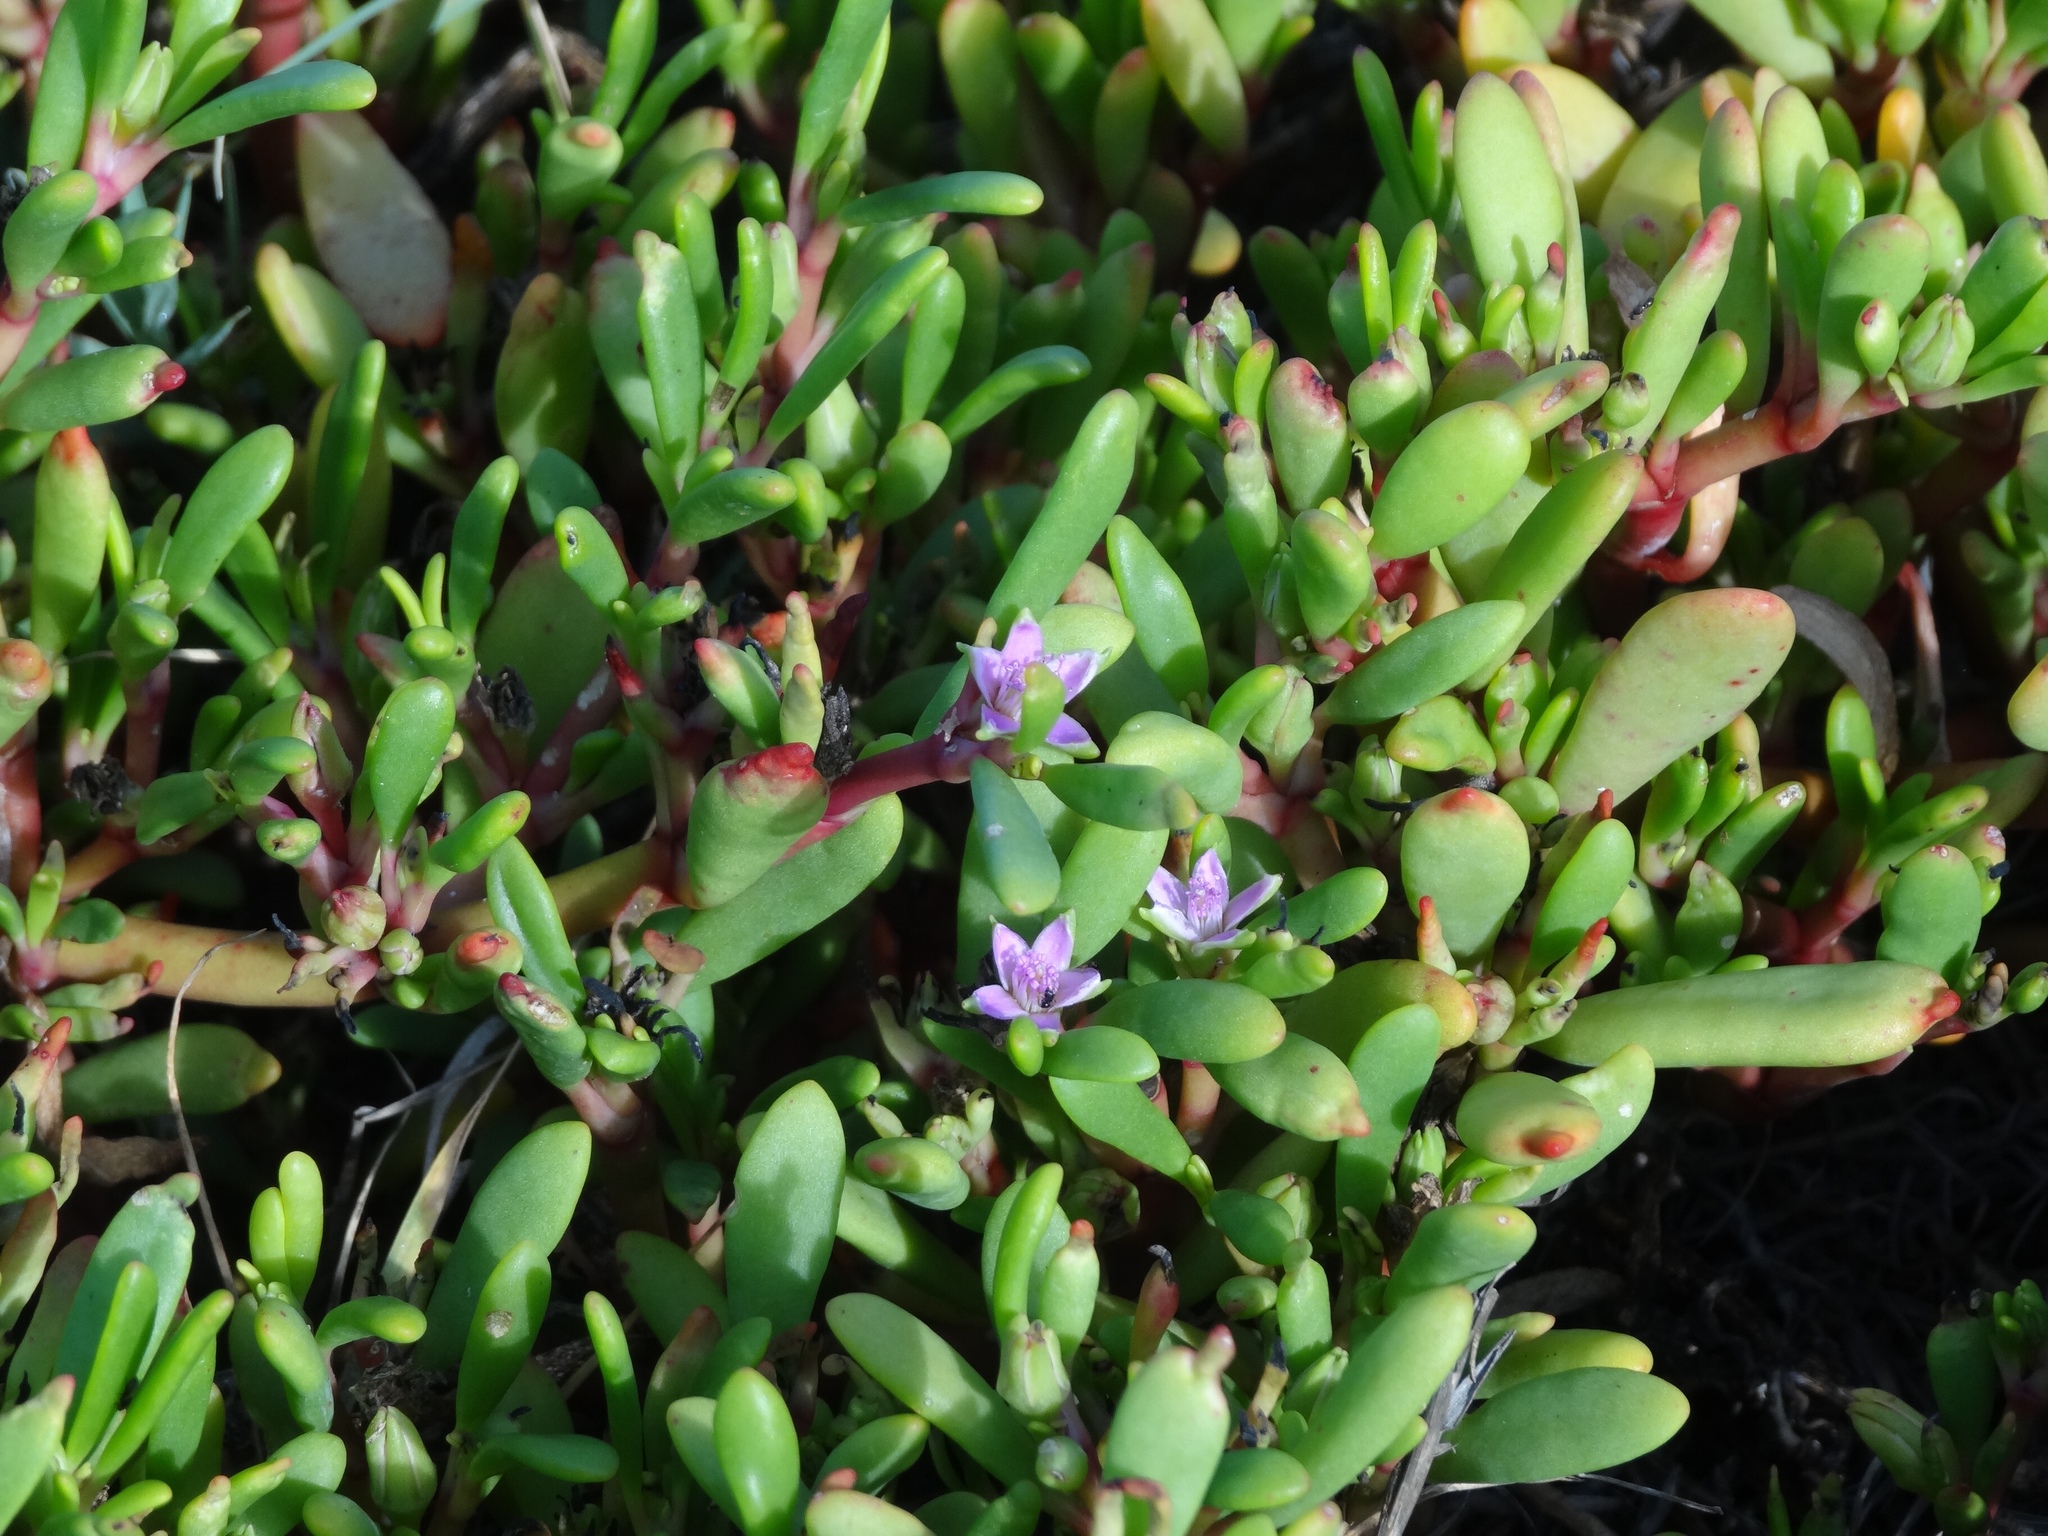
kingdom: Plantae
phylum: Tracheophyta
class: Magnoliopsida
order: Caryophyllales
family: Aizoaceae
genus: Sesuvium
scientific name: Sesuvium portulacastrum
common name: Sea-purslane
